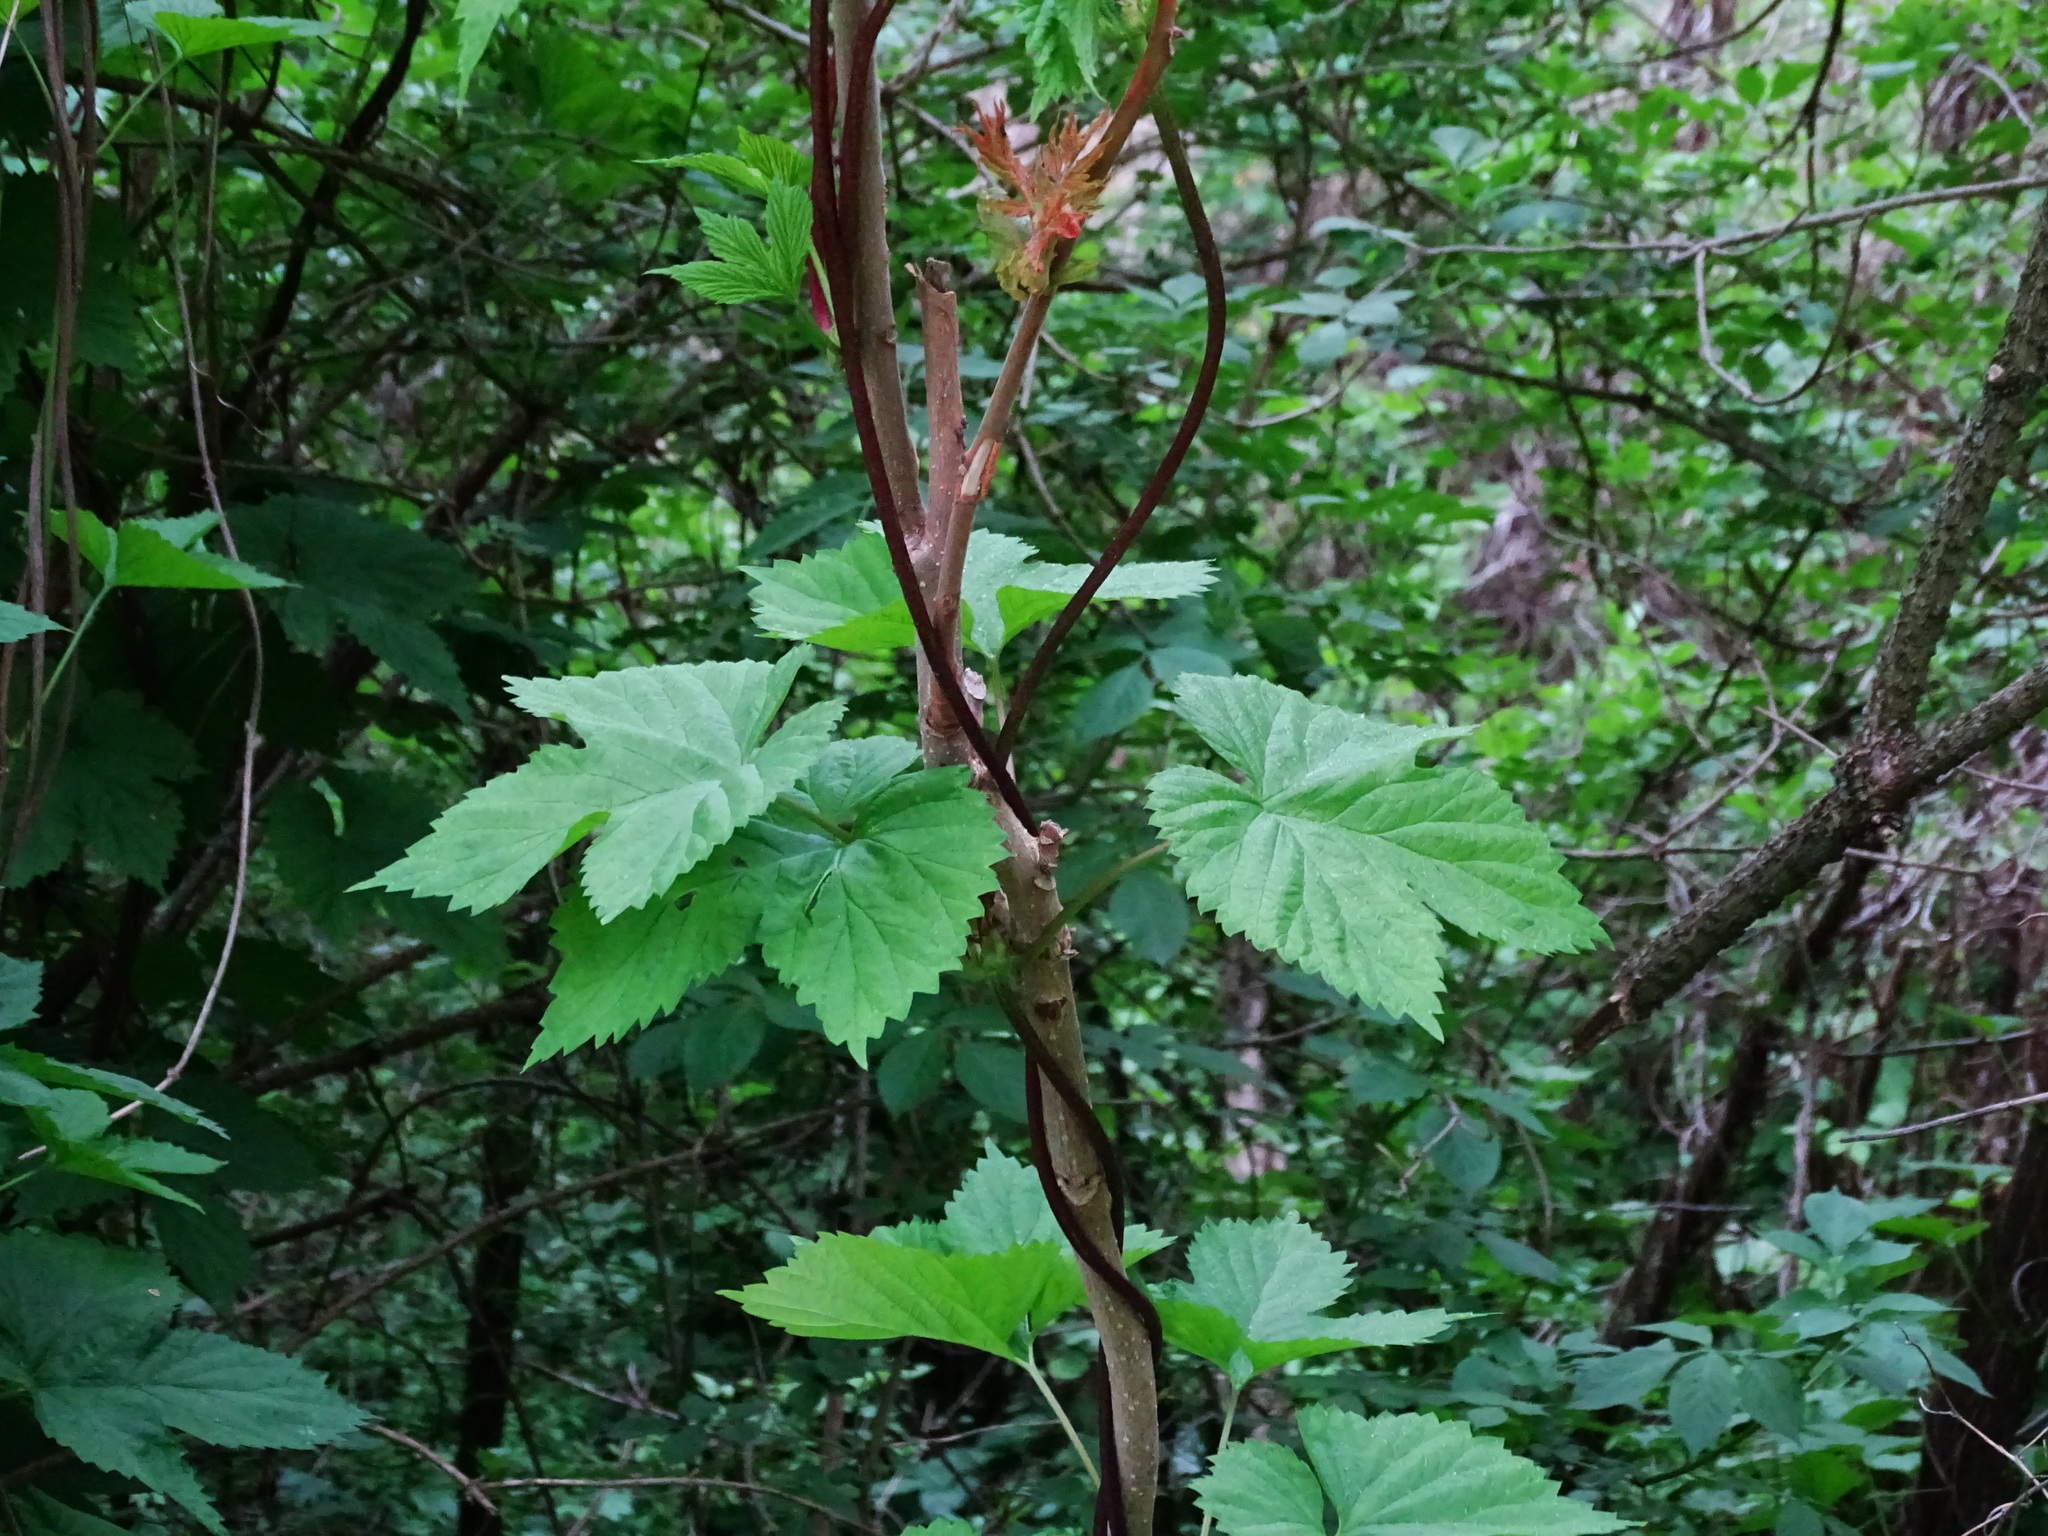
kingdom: Plantae
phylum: Tracheophyta
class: Magnoliopsida
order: Rosales
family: Cannabaceae
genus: Humulus
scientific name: Humulus lupulus
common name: Hop
